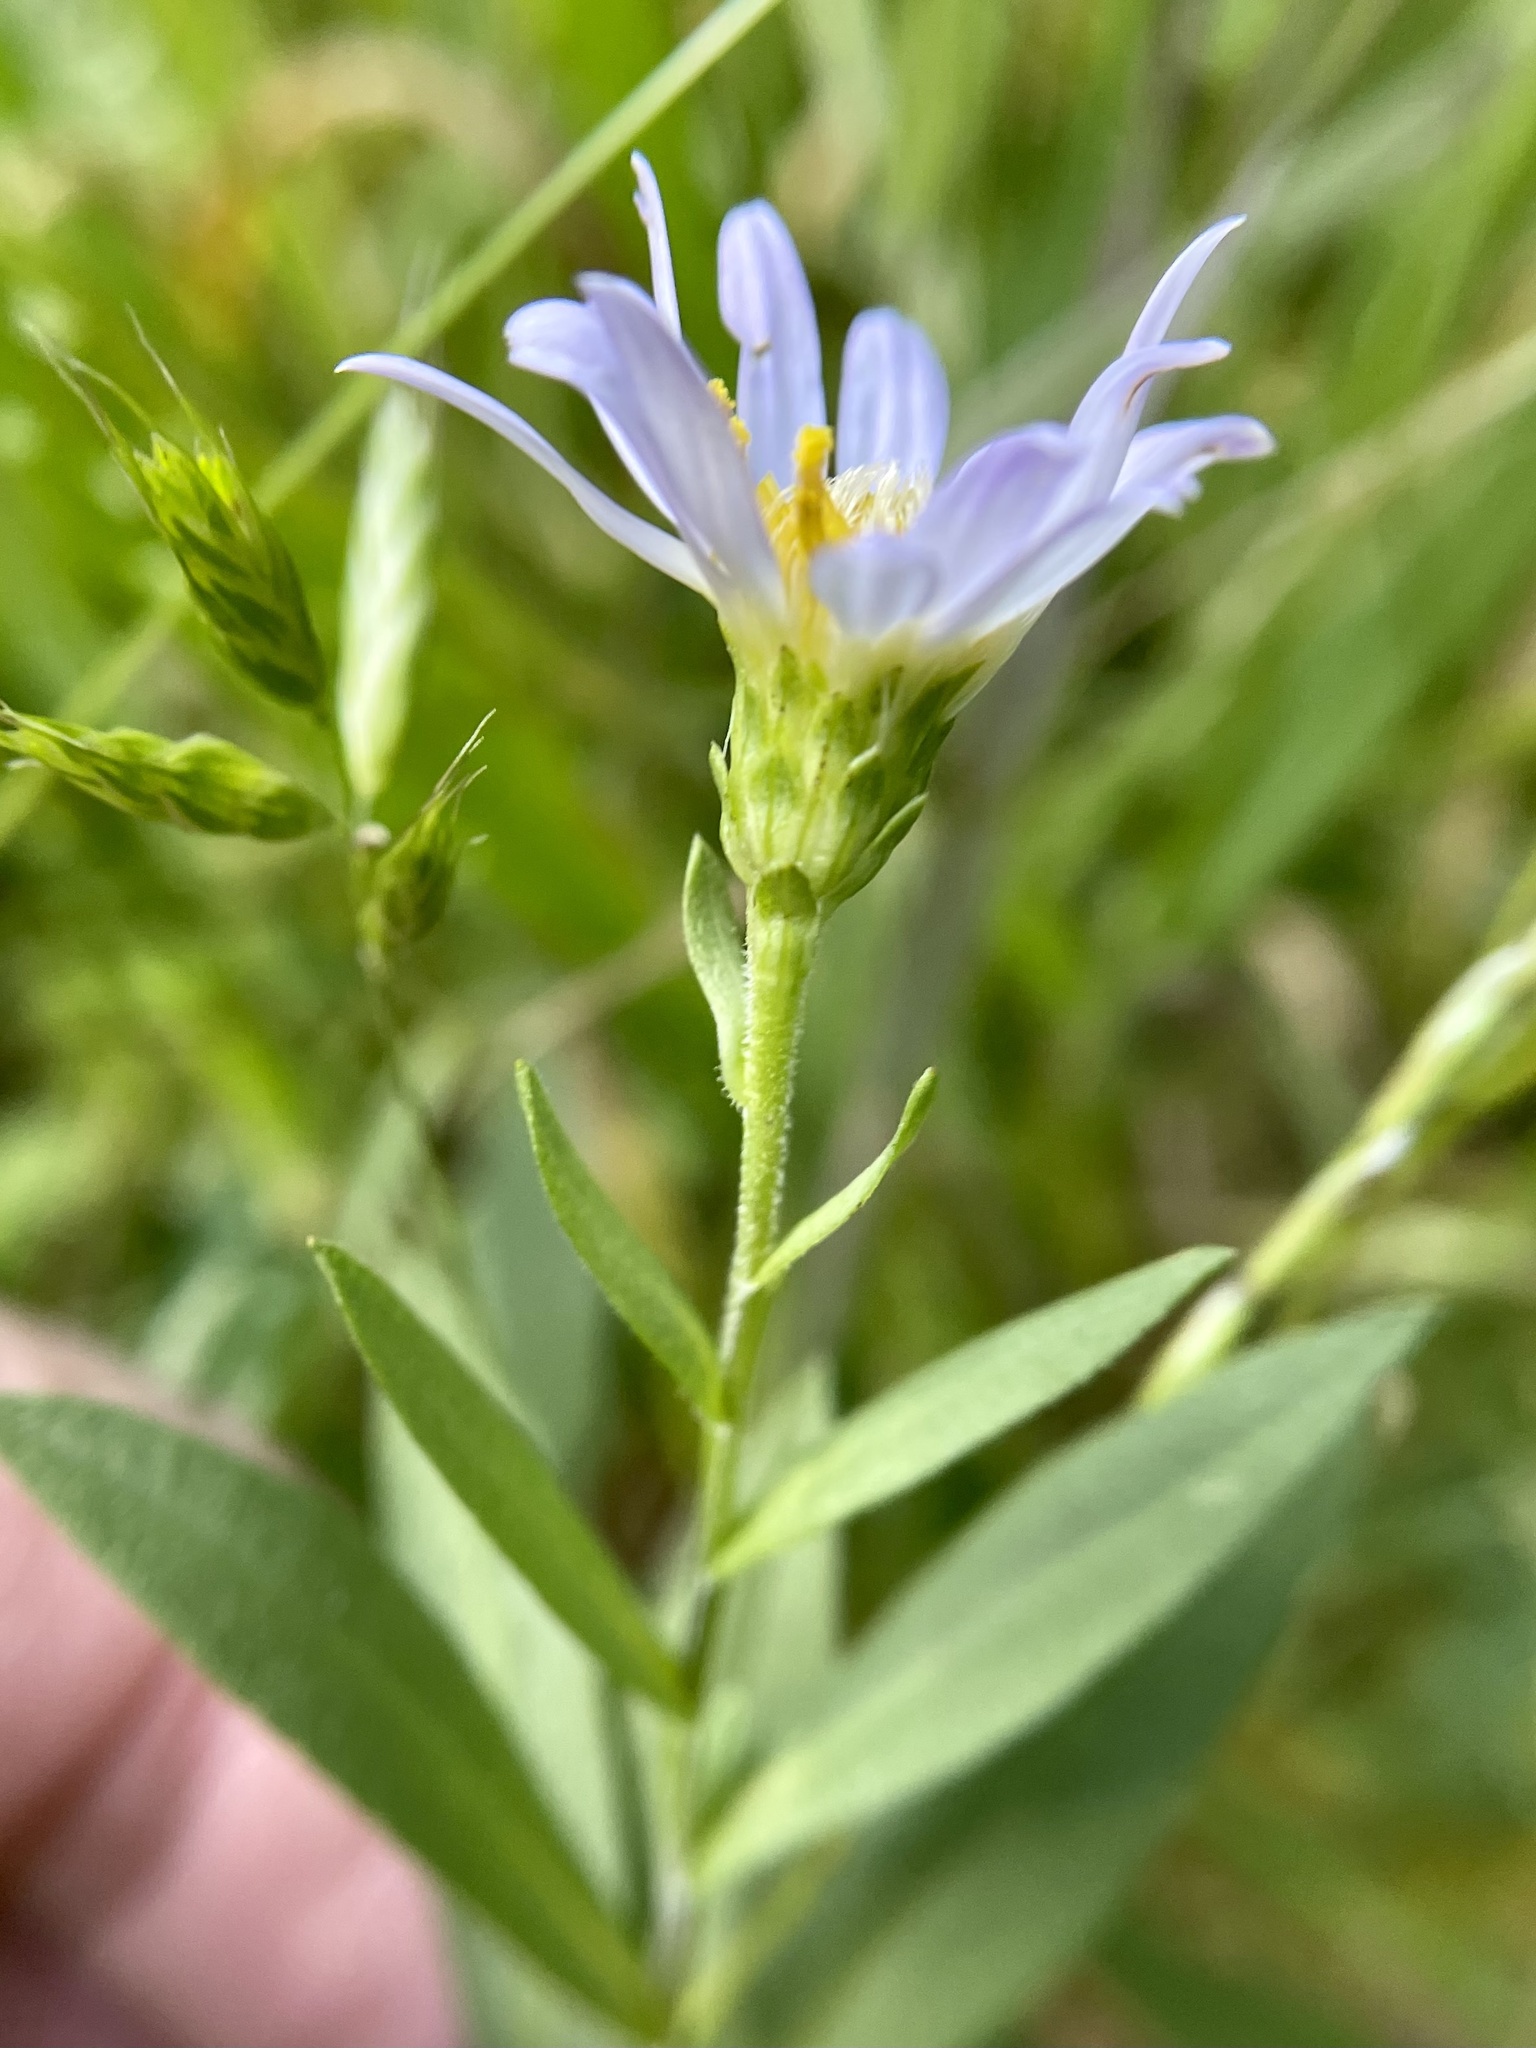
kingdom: Plantae
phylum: Tracheophyta
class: Magnoliopsida
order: Asterales
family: Asteraceae
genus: Symphyotrichum
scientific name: Symphyotrichum chilense
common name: Pacific aster
